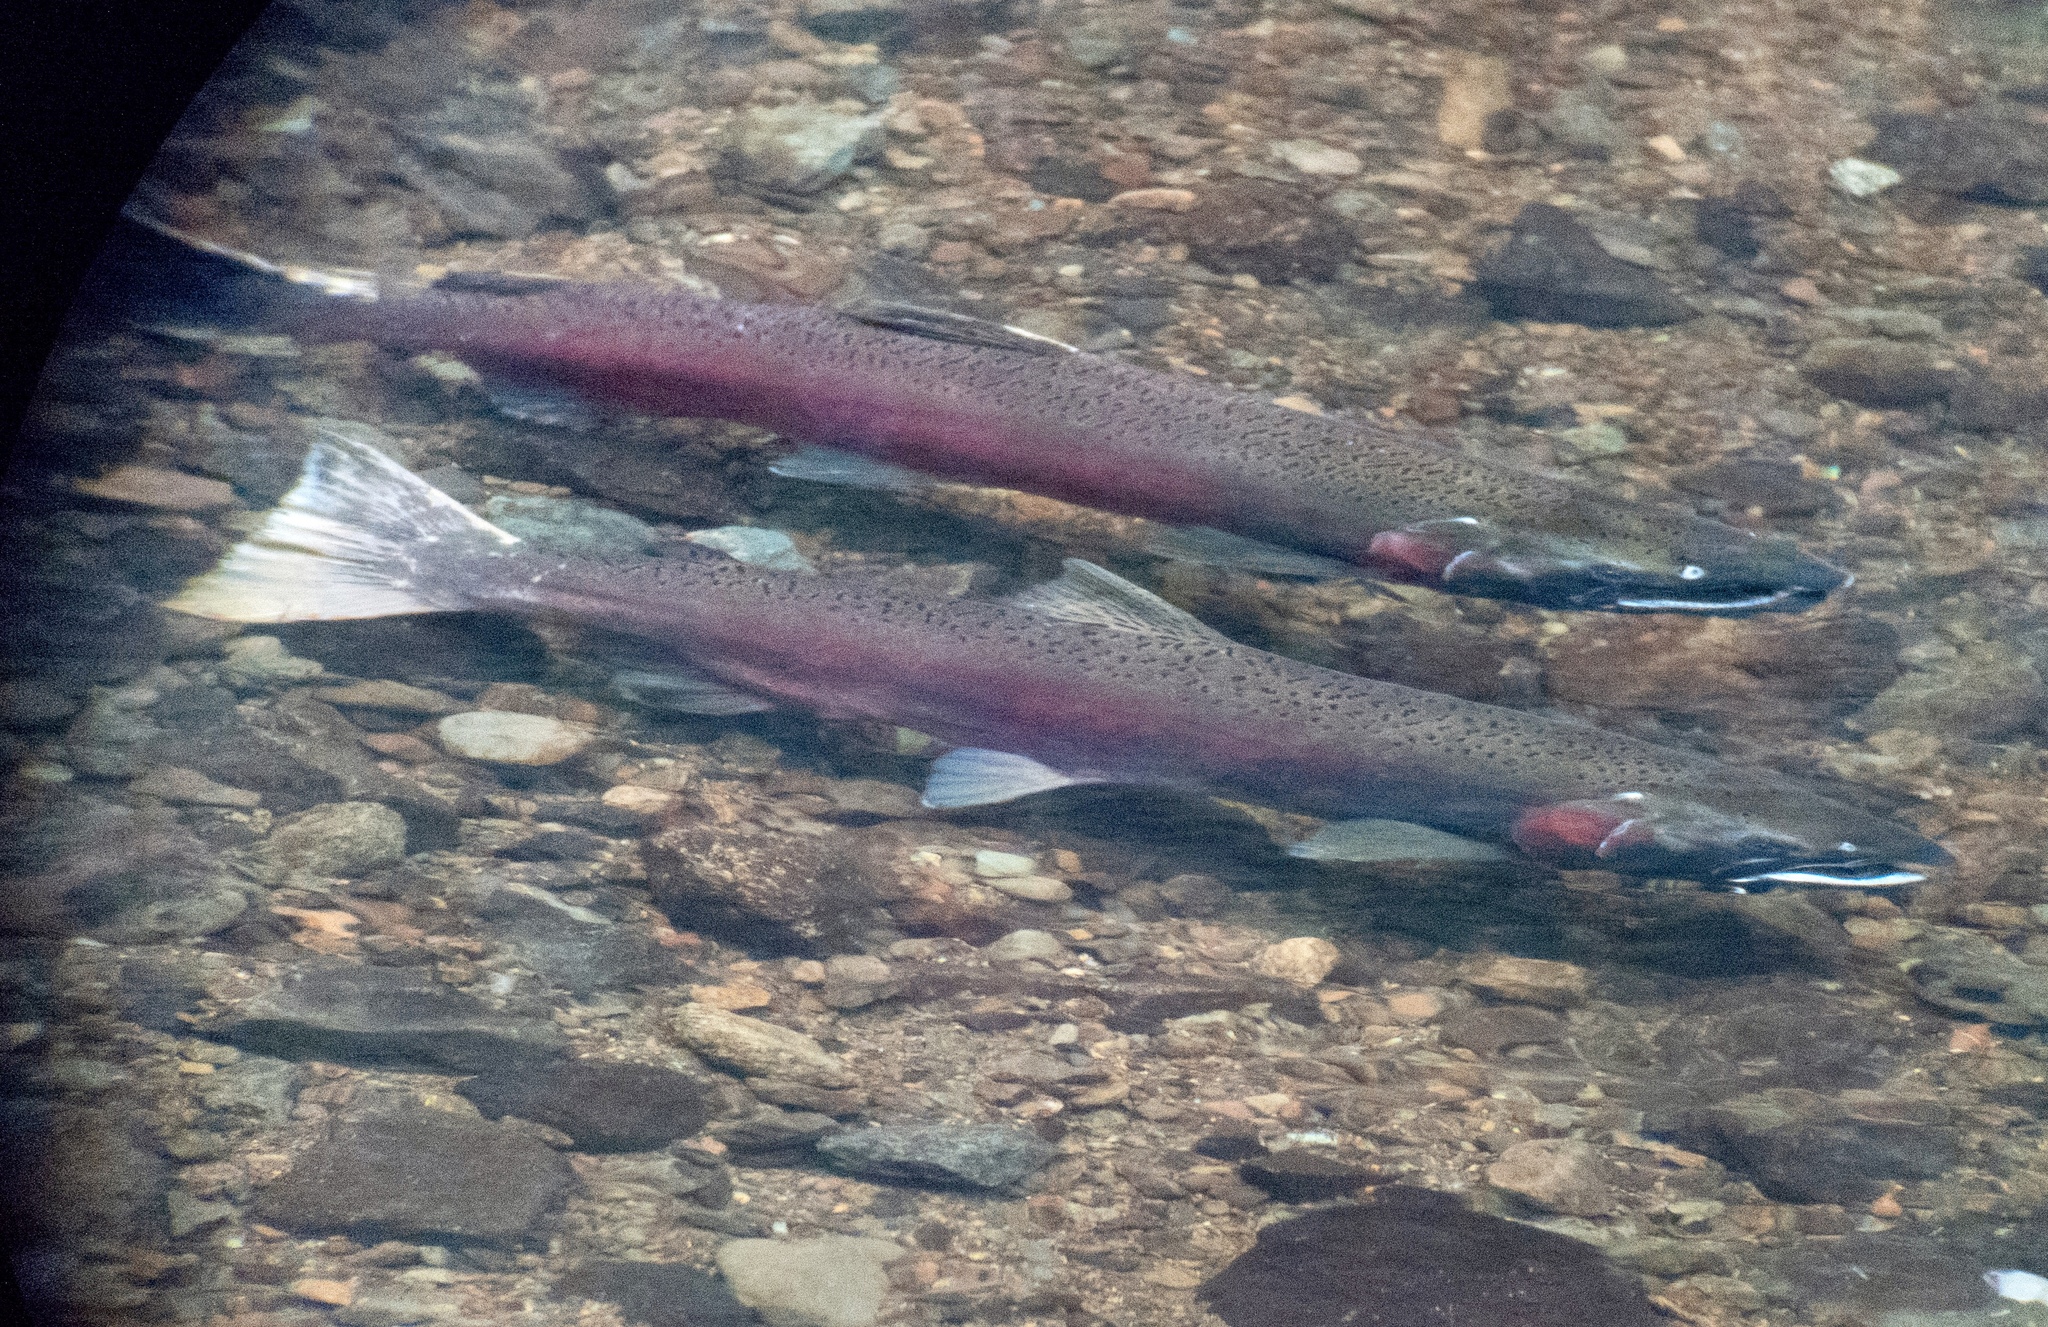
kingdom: Animalia
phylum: Chordata
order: Salmoniformes
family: Salmonidae
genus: Oncorhynchus
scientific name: Oncorhynchus kisutch
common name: Coho salmon
